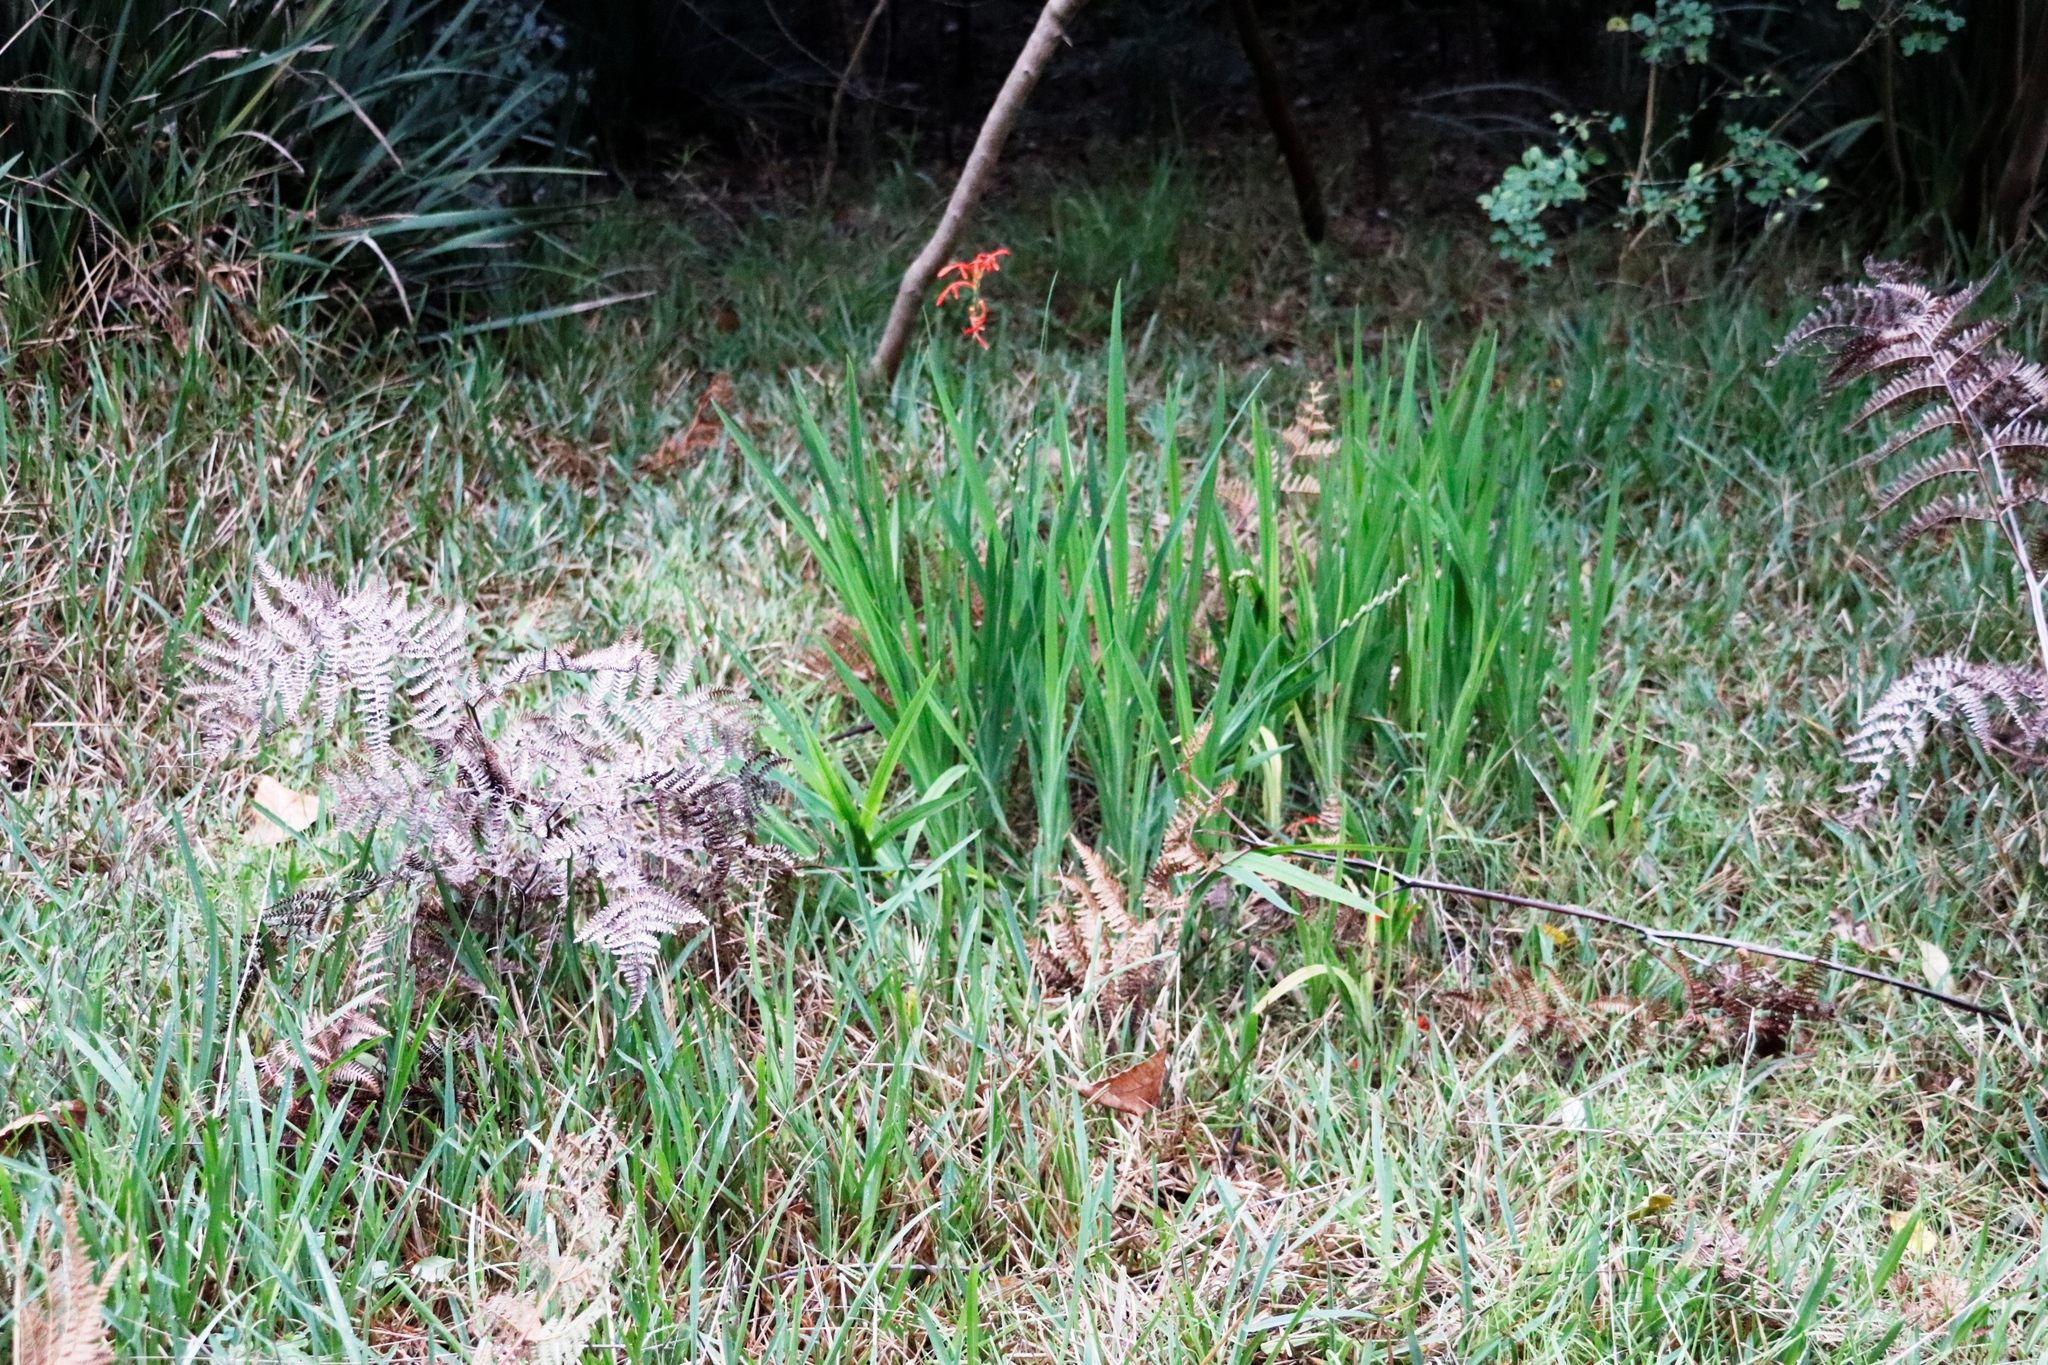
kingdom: Plantae
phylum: Tracheophyta
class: Liliopsida
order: Asparagales
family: Iridaceae
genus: Chasmanthe
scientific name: Chasmanthe aethiopica
